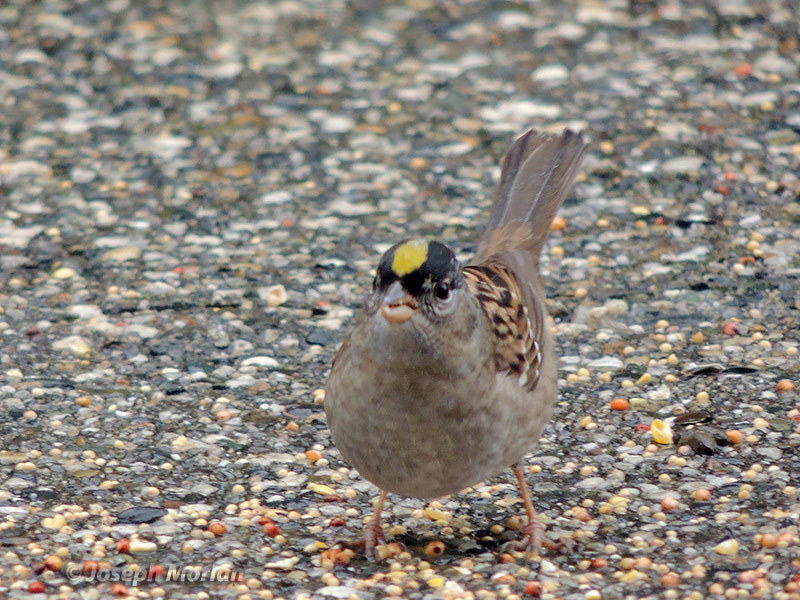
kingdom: Animalia
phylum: Chordata
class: Aves
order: Passeriformes
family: Passerellidae
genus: Zonotrichia
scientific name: Zonotrichia atricapilla
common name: Golden-crowned sparrow
